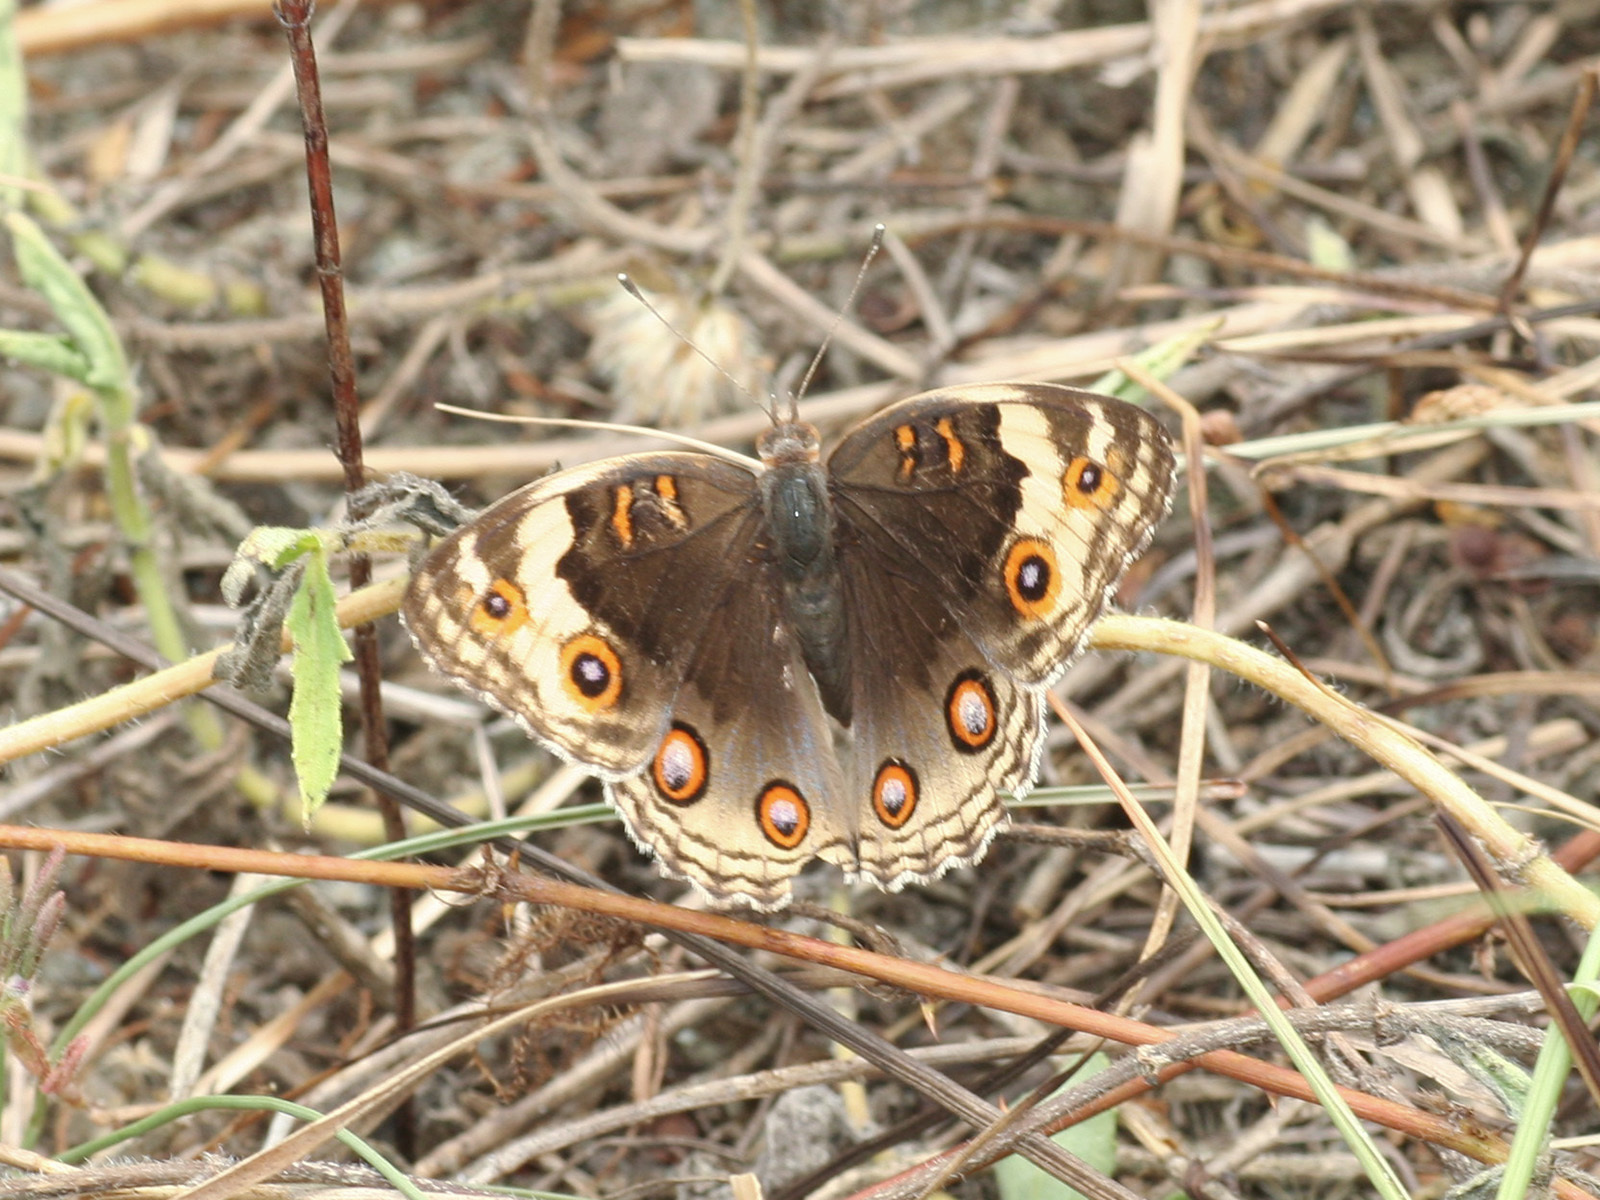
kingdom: Animalia
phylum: Arthropoda
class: Insecta
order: Lepidoptera
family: Nymphalidae
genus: Junonia
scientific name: Junonia orithya
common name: Blue pansy
